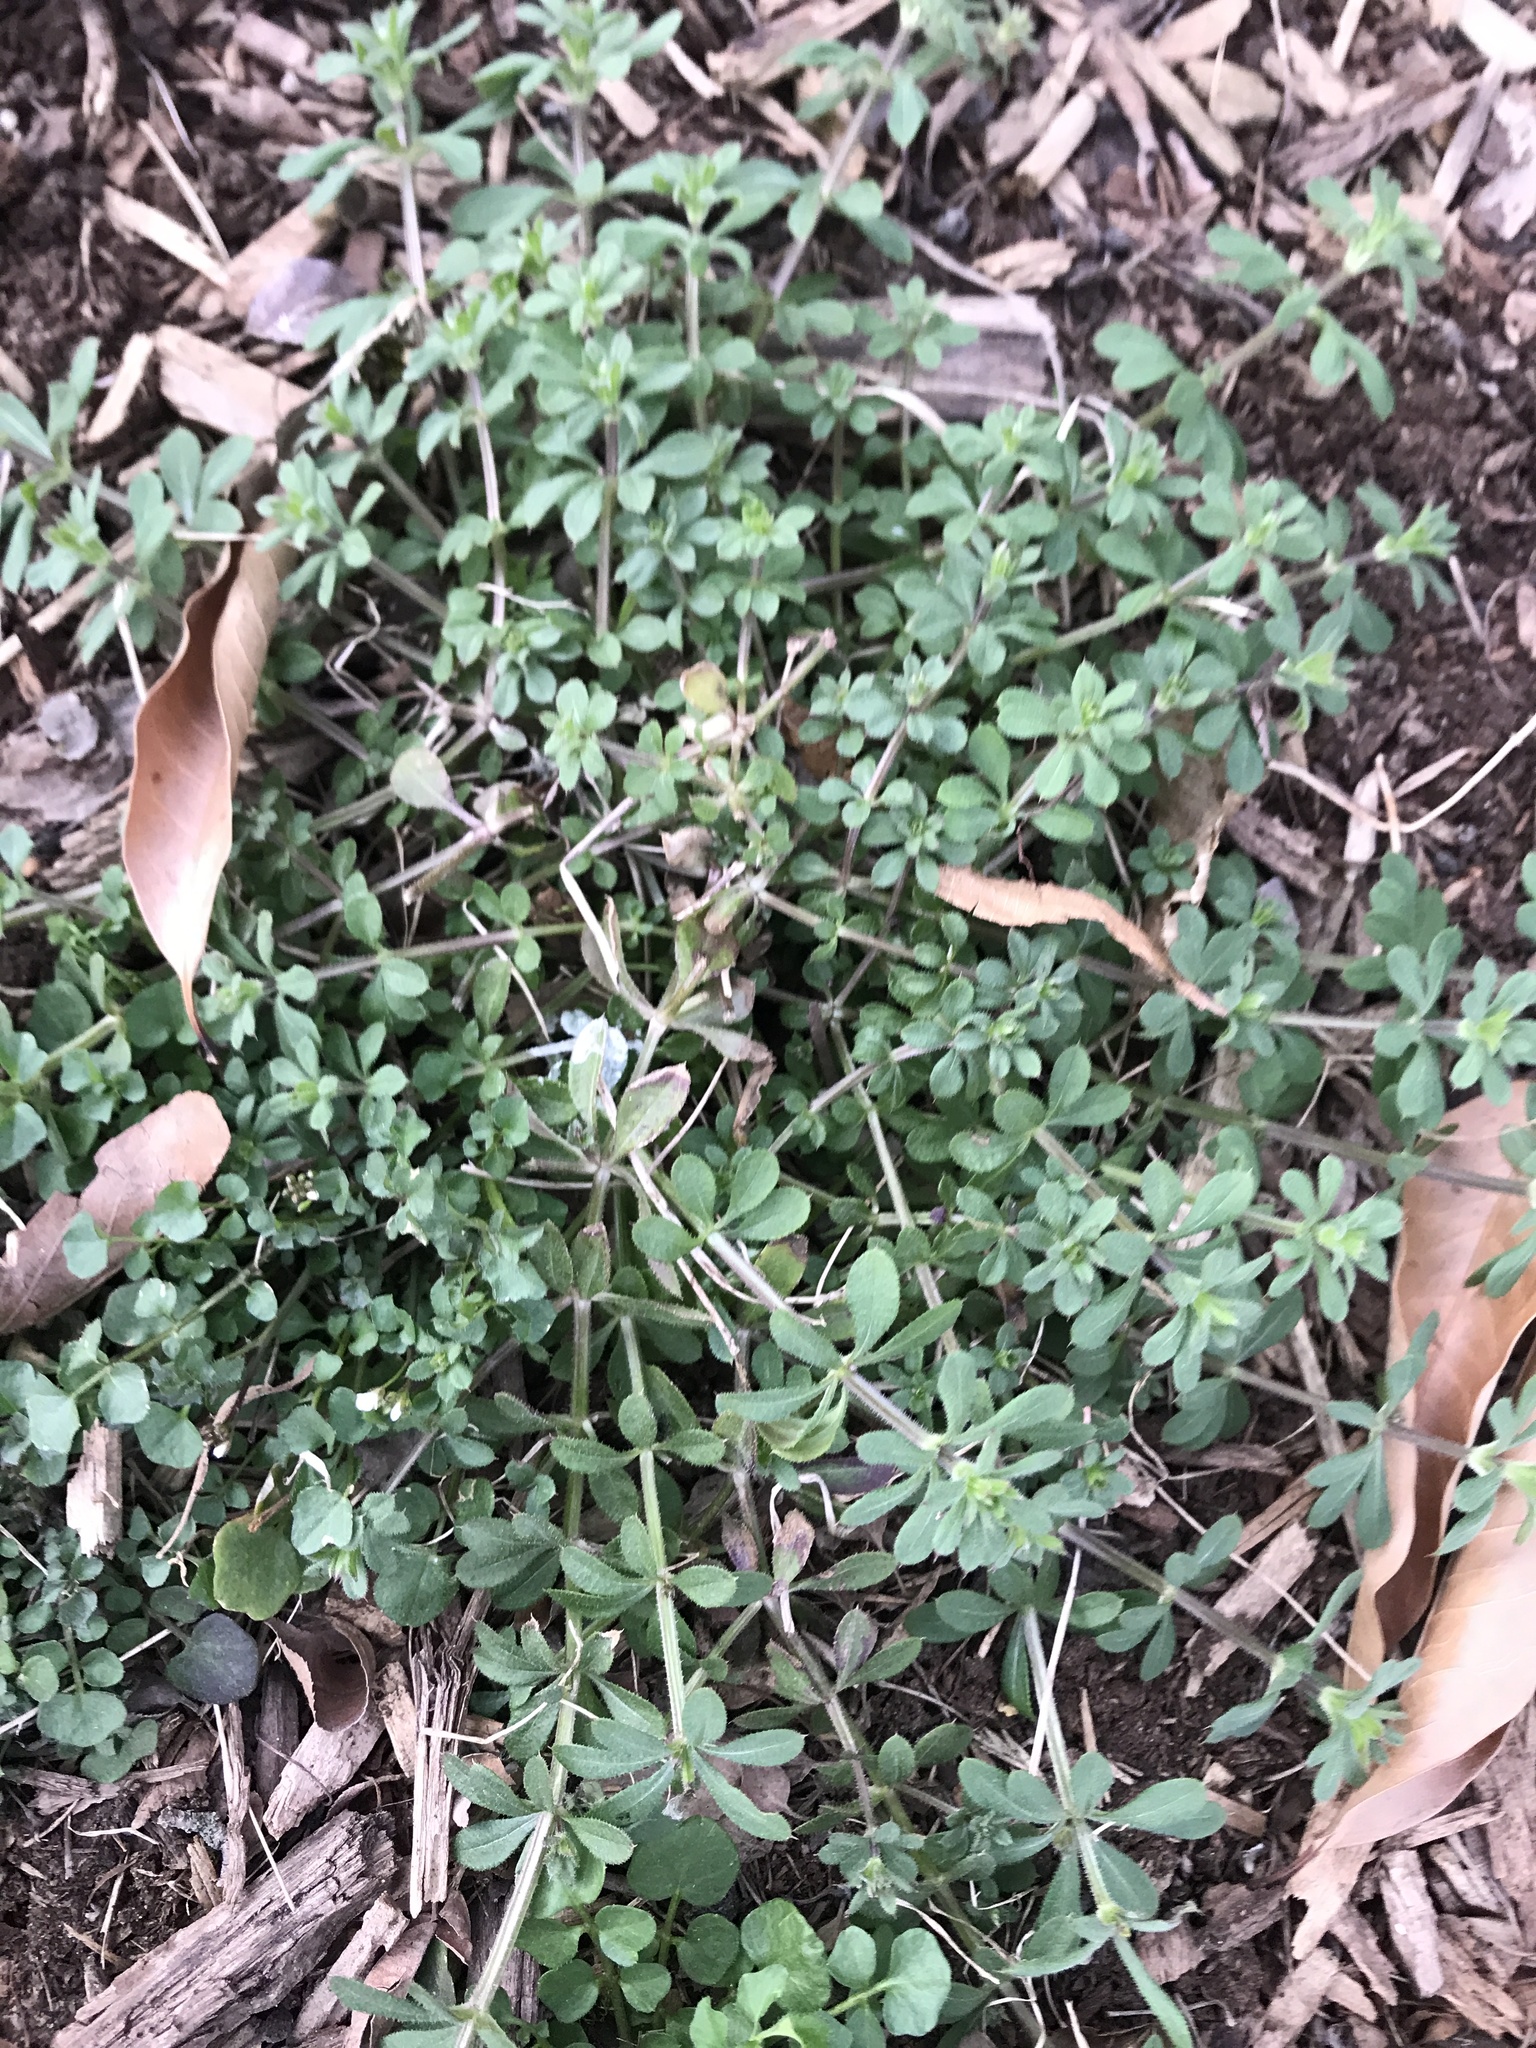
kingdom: Plantae
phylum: Tracheophyta
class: Magnoliopsida
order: Gentianales
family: Rubiaceae
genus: Galium
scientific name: Galium aparine
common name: Cleavers
